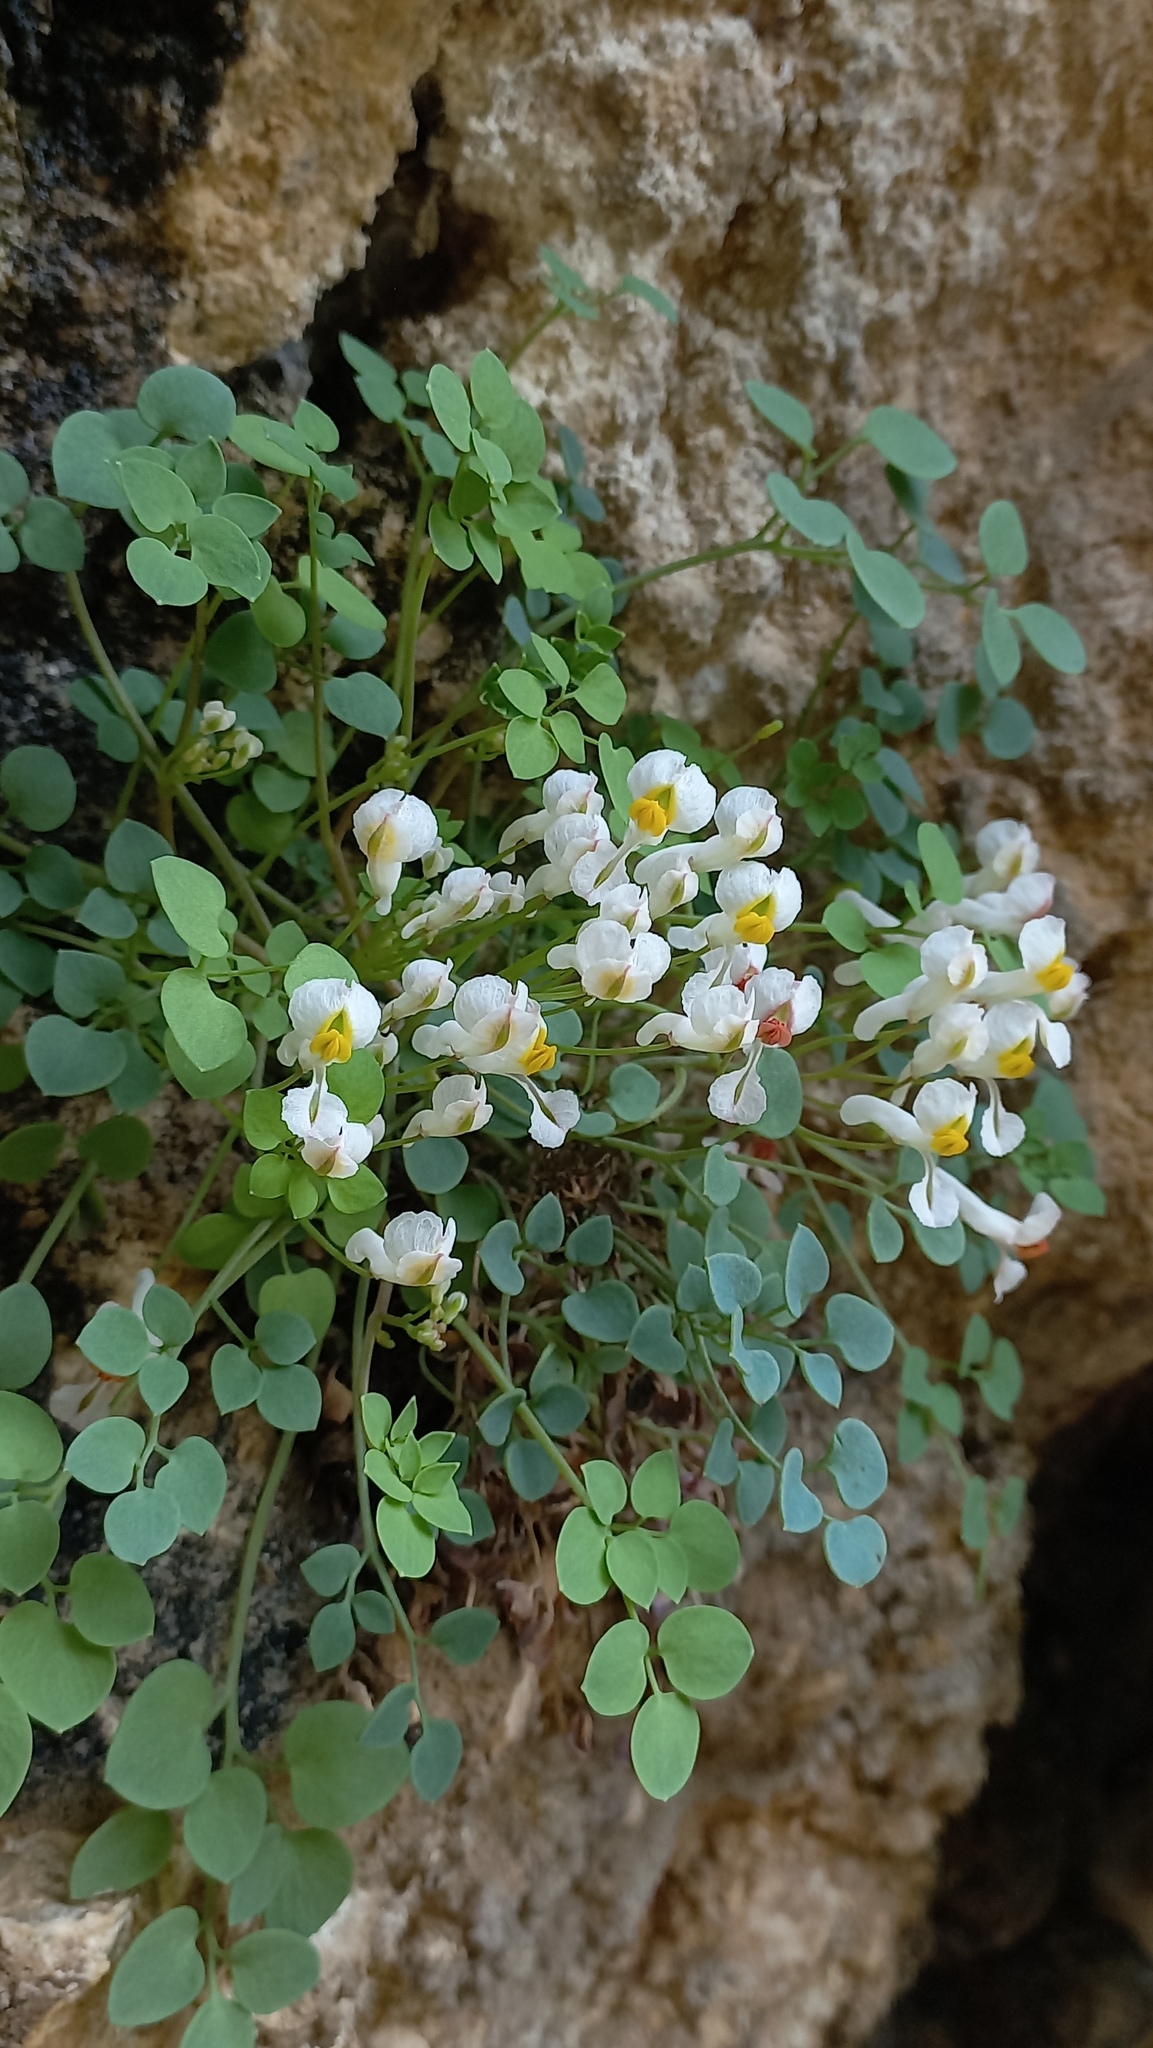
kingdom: Plantae
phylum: Tracheophyta
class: Magnoliopsida
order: Ranunculales
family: Papaveraceae
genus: Sarcocapnos
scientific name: Sarcocapnos enneaphylla
